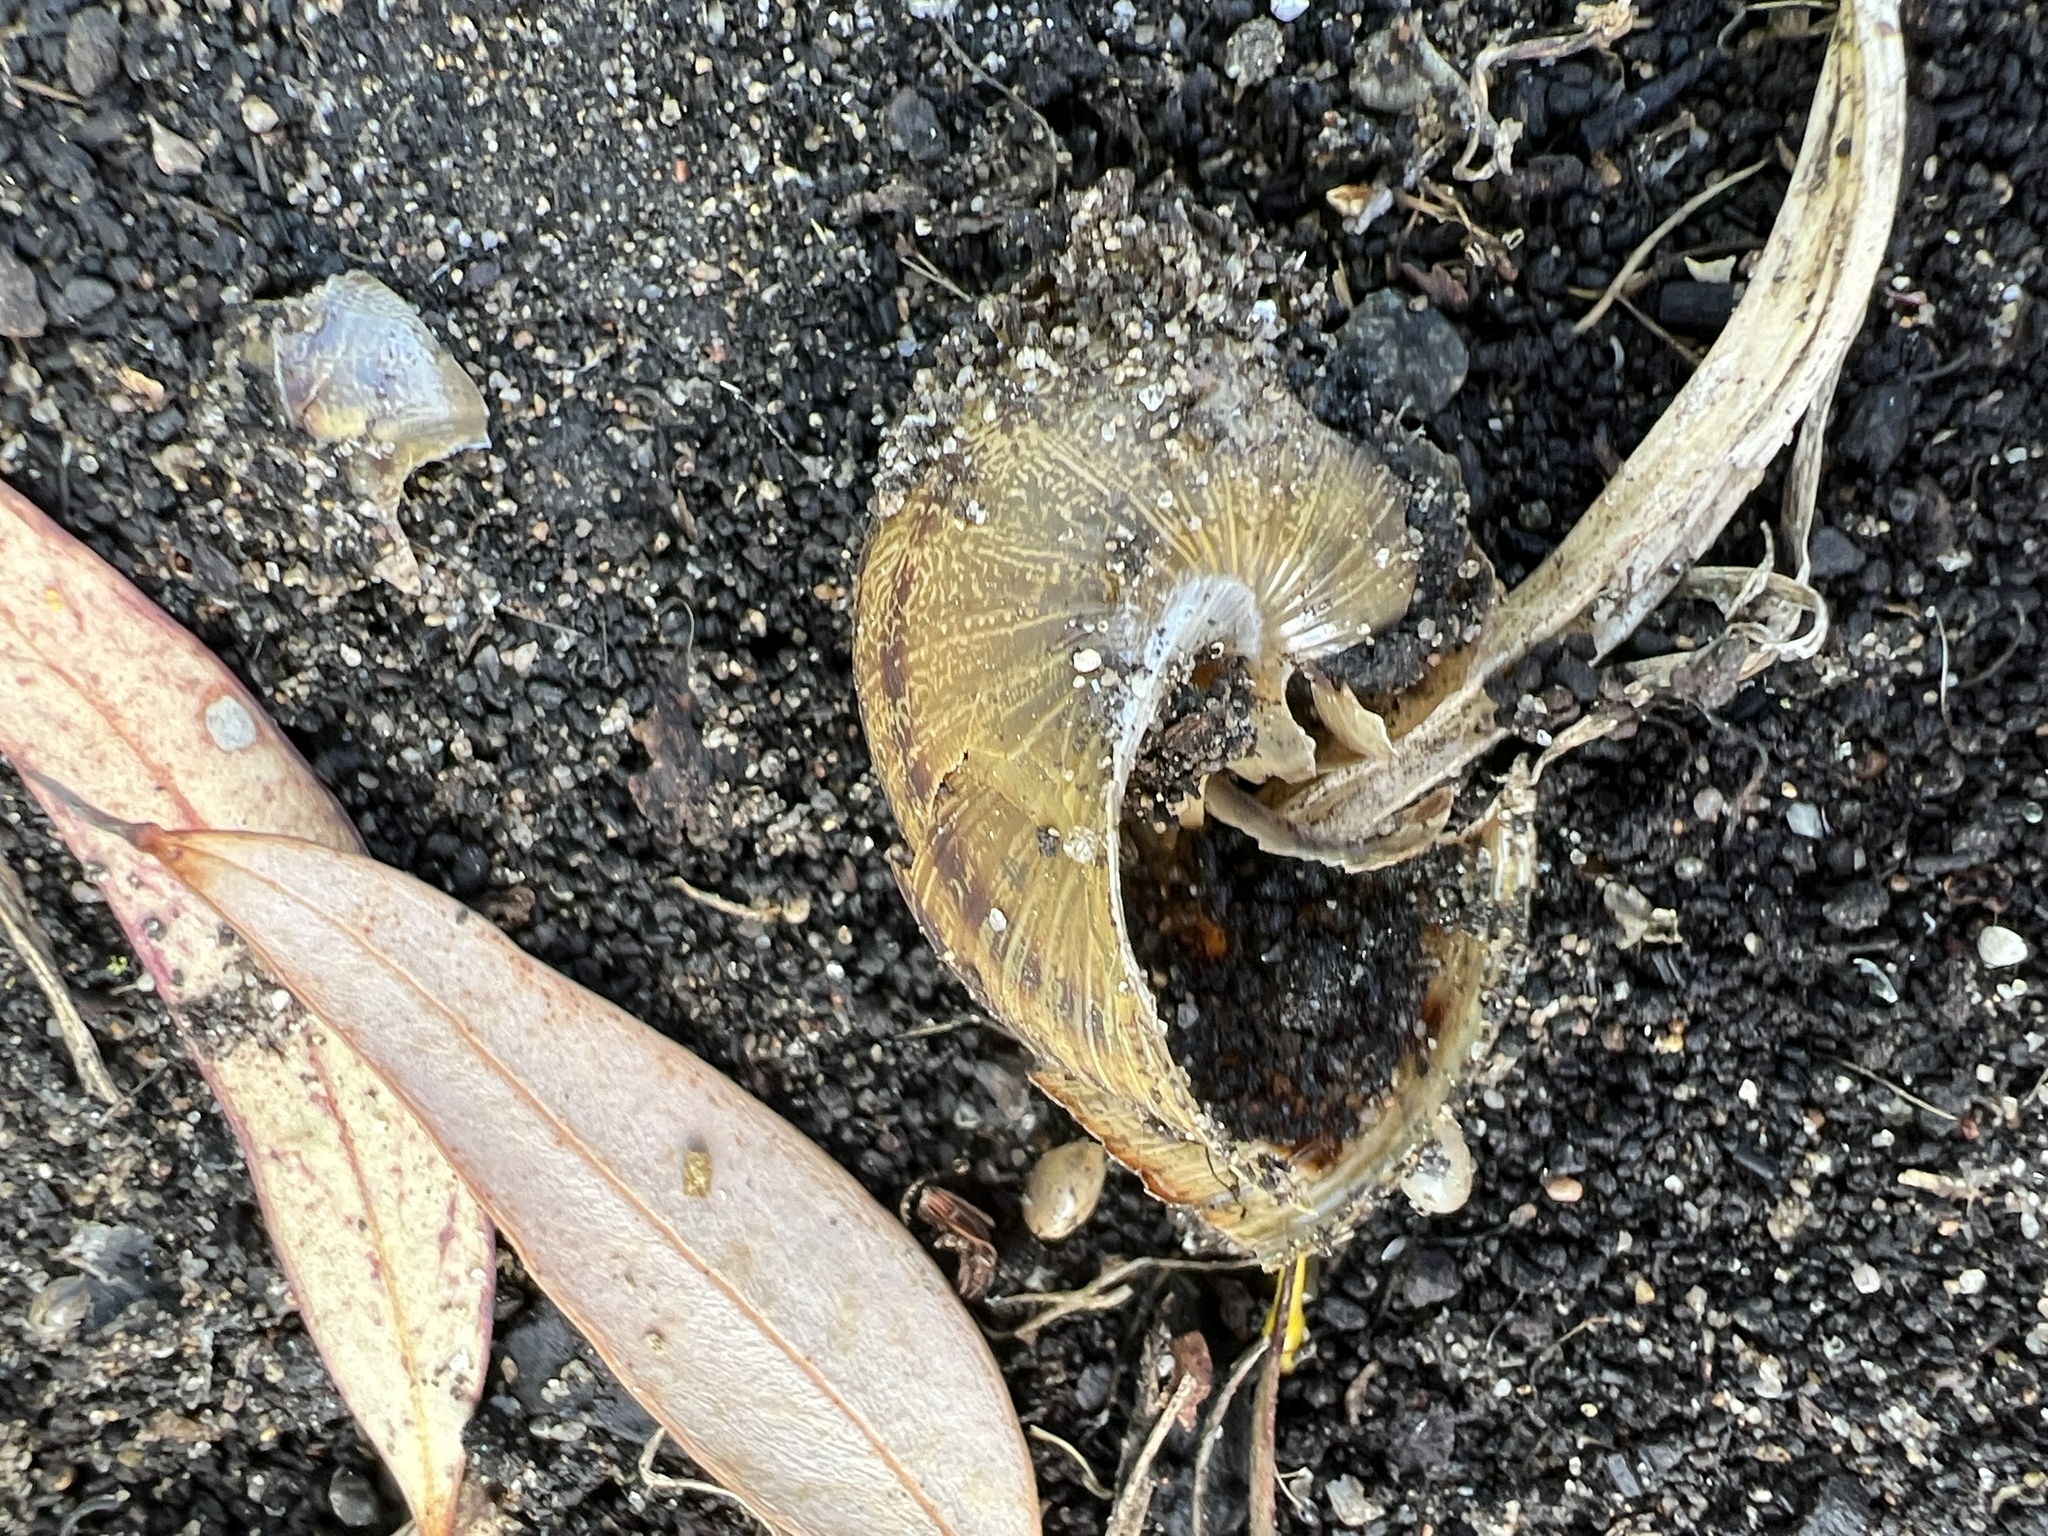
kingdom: Animalia
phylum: Mollusca
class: Gastropoda
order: Stylommatophora
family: Helicidae
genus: Cornu
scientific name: Cornu aspersum
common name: Brown garden snail
